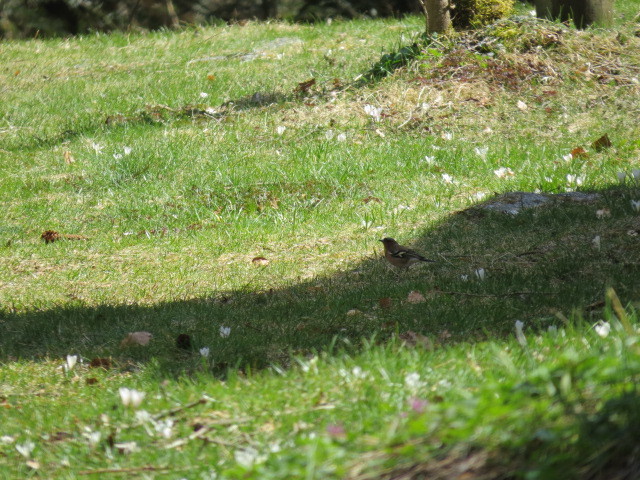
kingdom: Animalia
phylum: Chordata
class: Aves
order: Passeriformes
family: Fringillidae
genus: Fringilla
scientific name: Fringilla coelebs
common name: Common chaffinch
